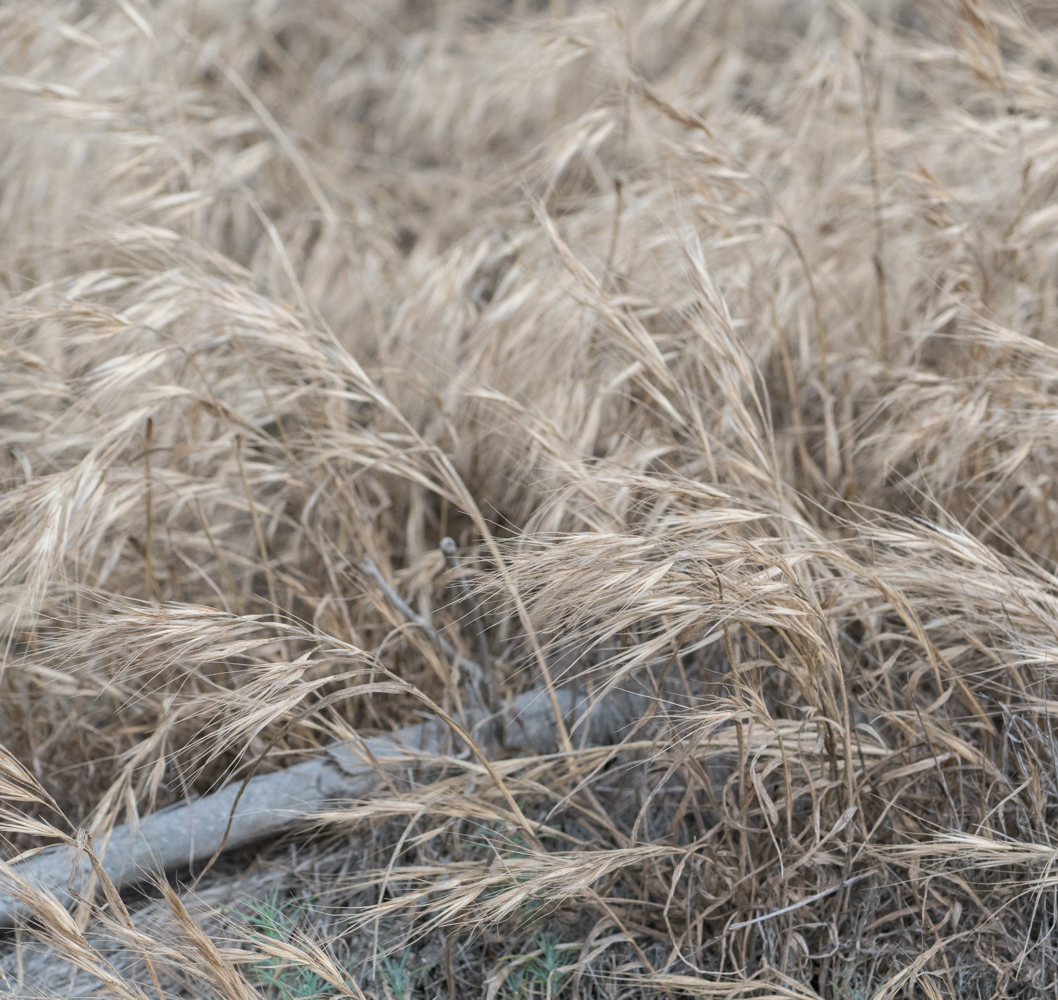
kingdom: Plantae
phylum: Tracheophyta
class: Liliopsida
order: Poales
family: Poaceae
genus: Bromus
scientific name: Bromus diandrus
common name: Ripgut brome
